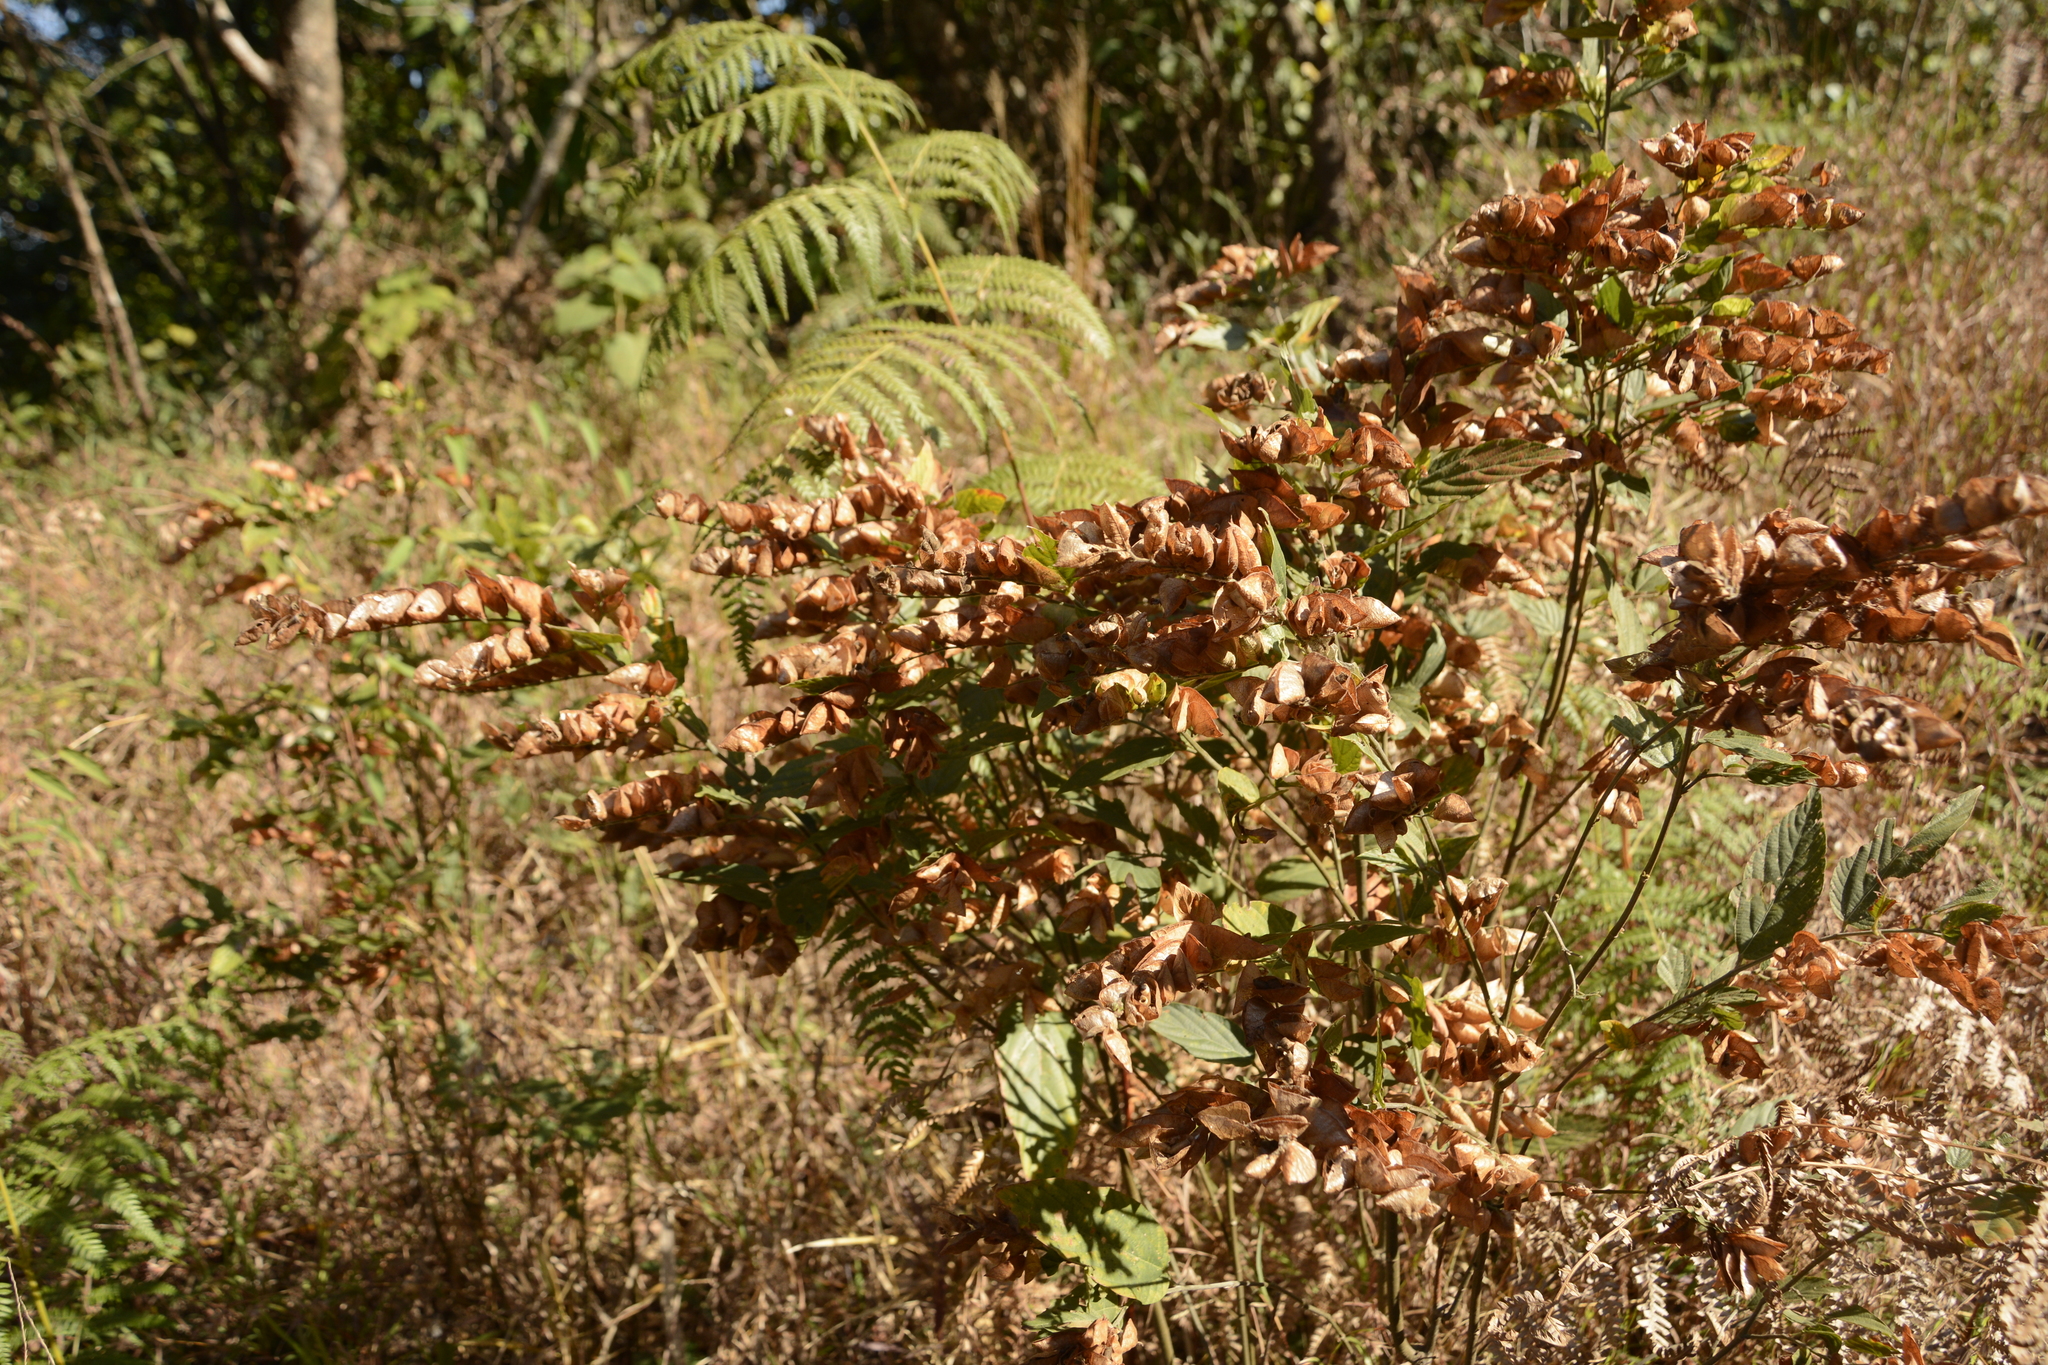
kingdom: Plantae
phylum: Tracheophyta
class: Magnoliopsida
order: Fabales
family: Fabaceae
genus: Flemingia
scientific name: Flemingia strobilifera
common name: Wild hops
